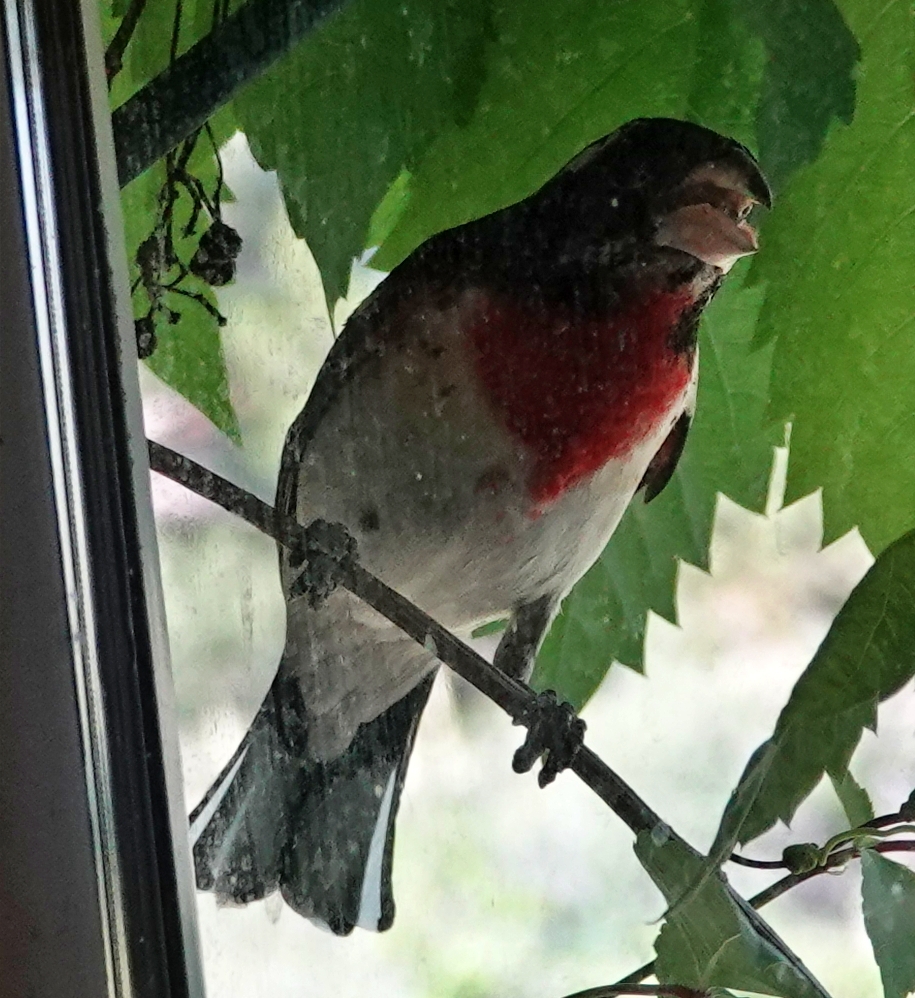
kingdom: Animalia
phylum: Chordata
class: Aves
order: Passeriformes
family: Cardinalidae
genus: Pheucticus
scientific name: Pheucticus ludovicianus
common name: Rose-breasted grosbeak
